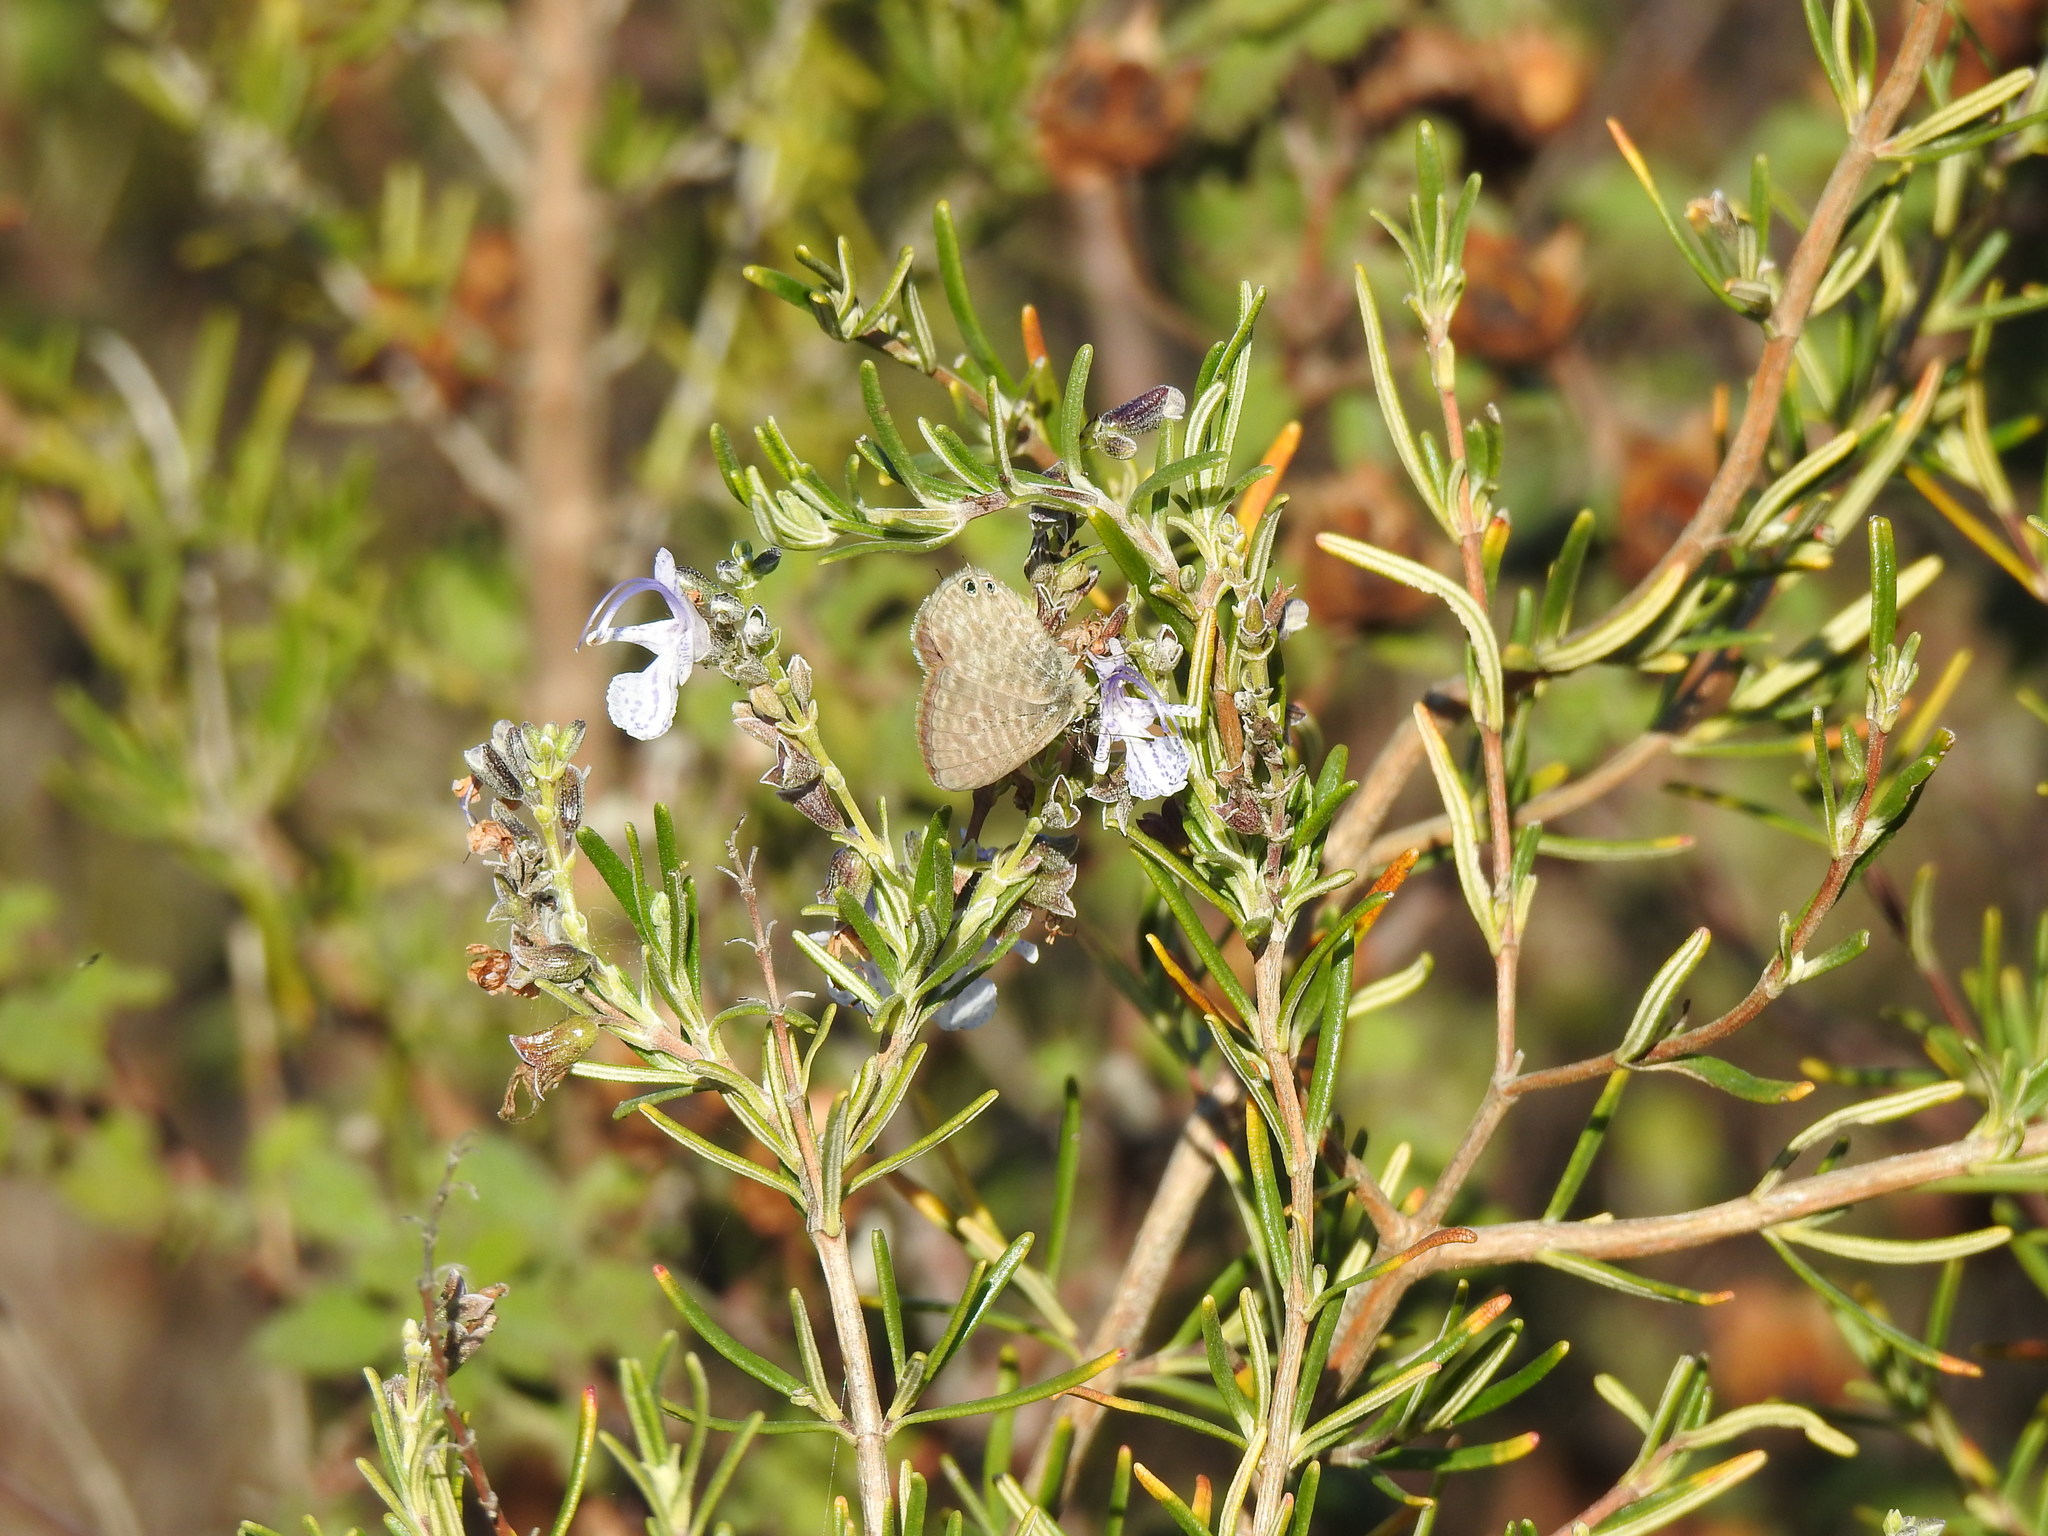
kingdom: Plantae
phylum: Tracheophyta
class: Magnoliopsida
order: Lamiales
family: Lamiaceae
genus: Salvia
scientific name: Salvia rosmarinus
